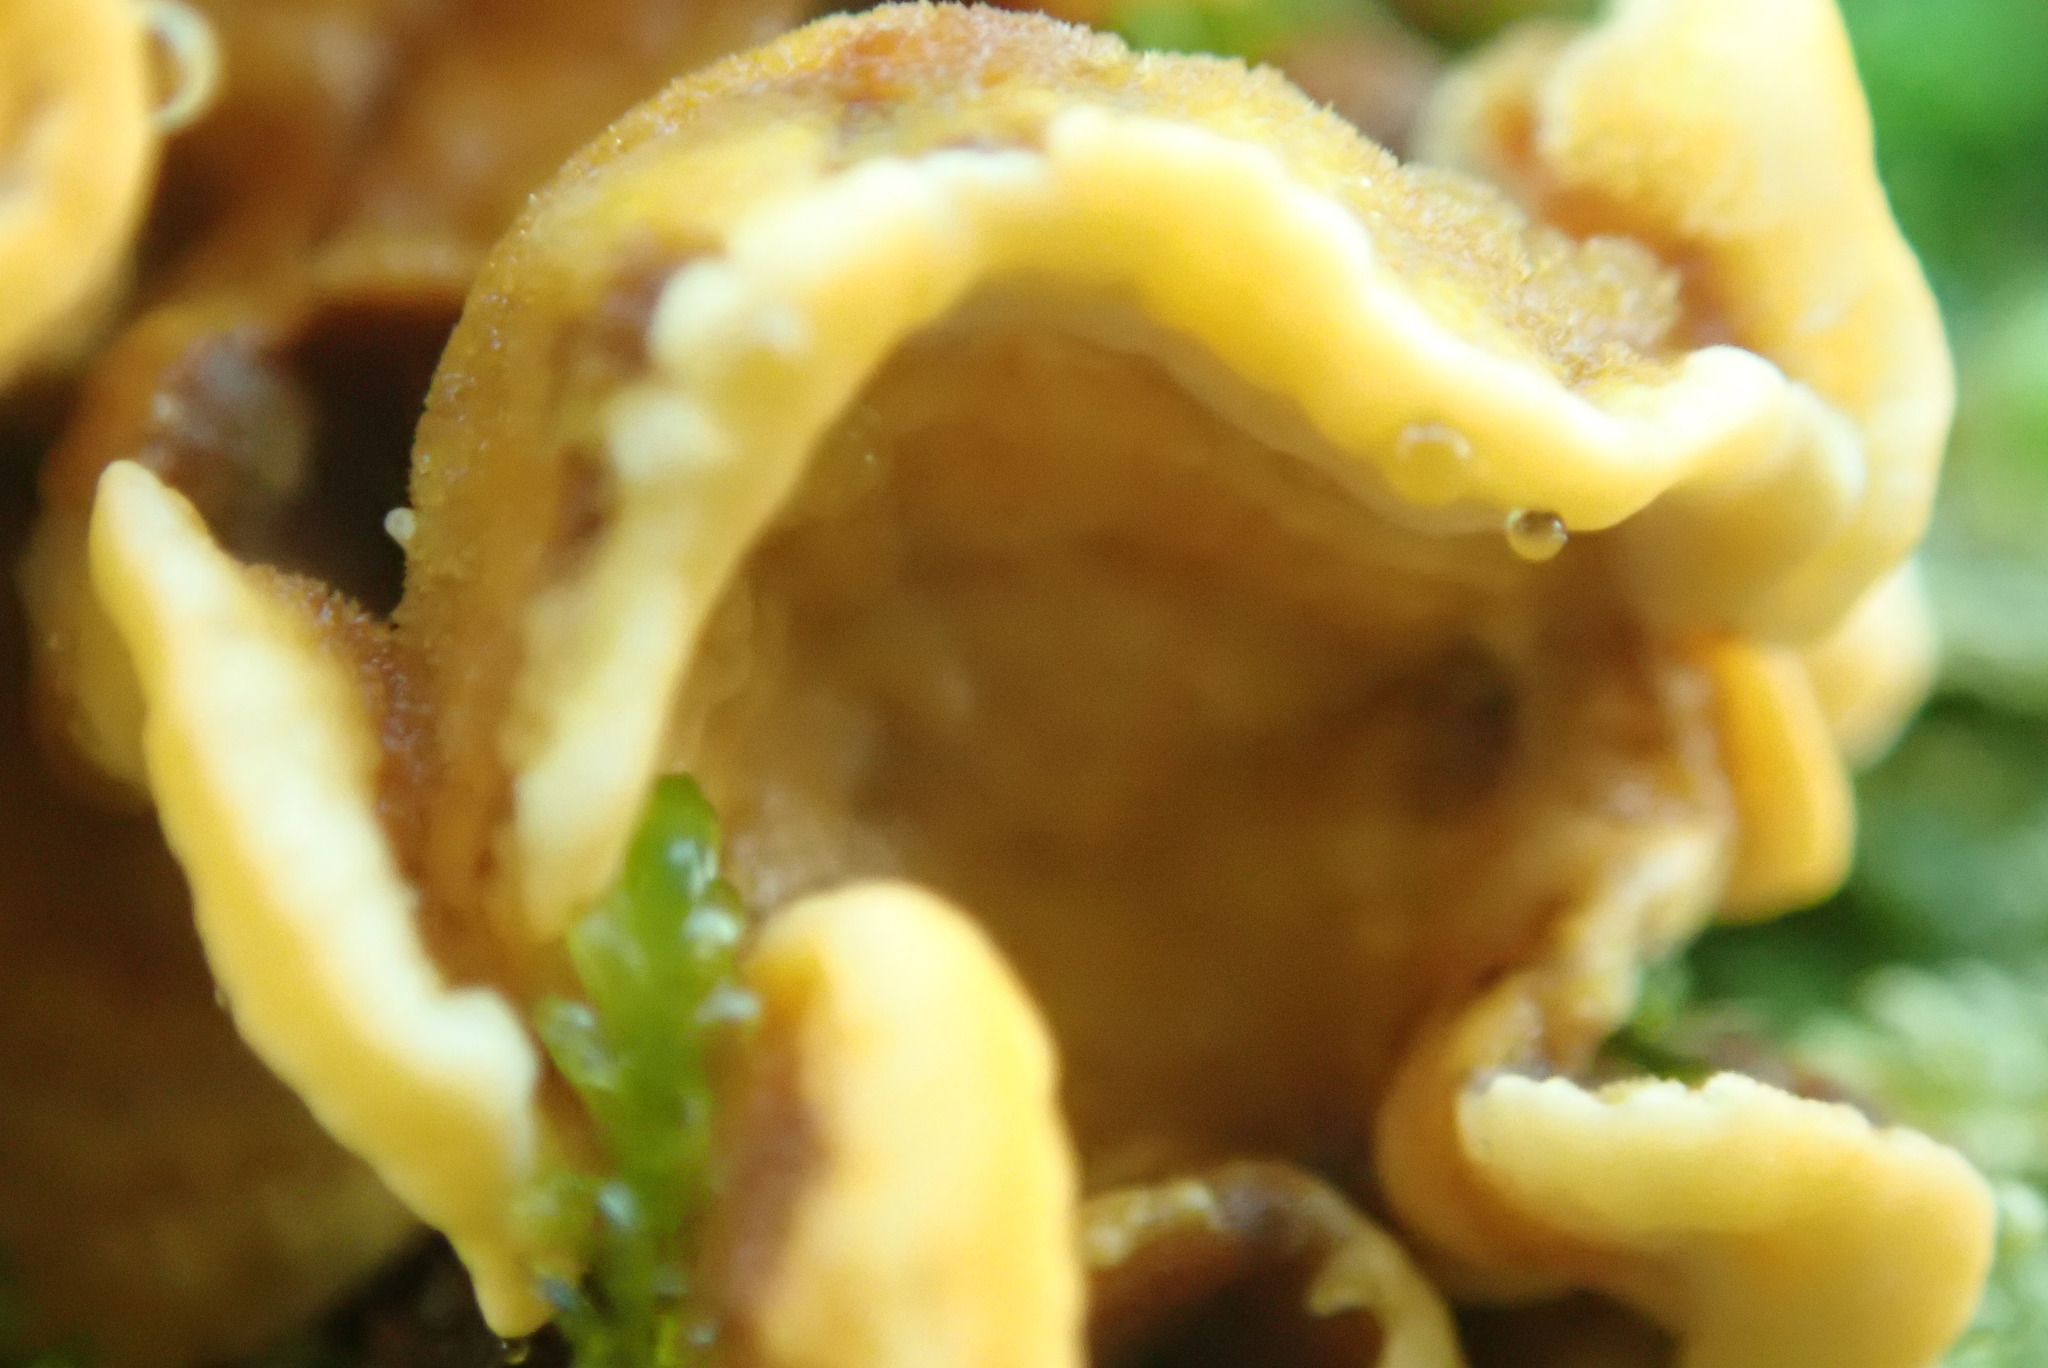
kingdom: Fungi
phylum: Basidiomycota
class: Agaricomycetes
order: Russulales
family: Stereaceae
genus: Stereum
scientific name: Stereum hirsutum
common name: Hairy curtain crust
